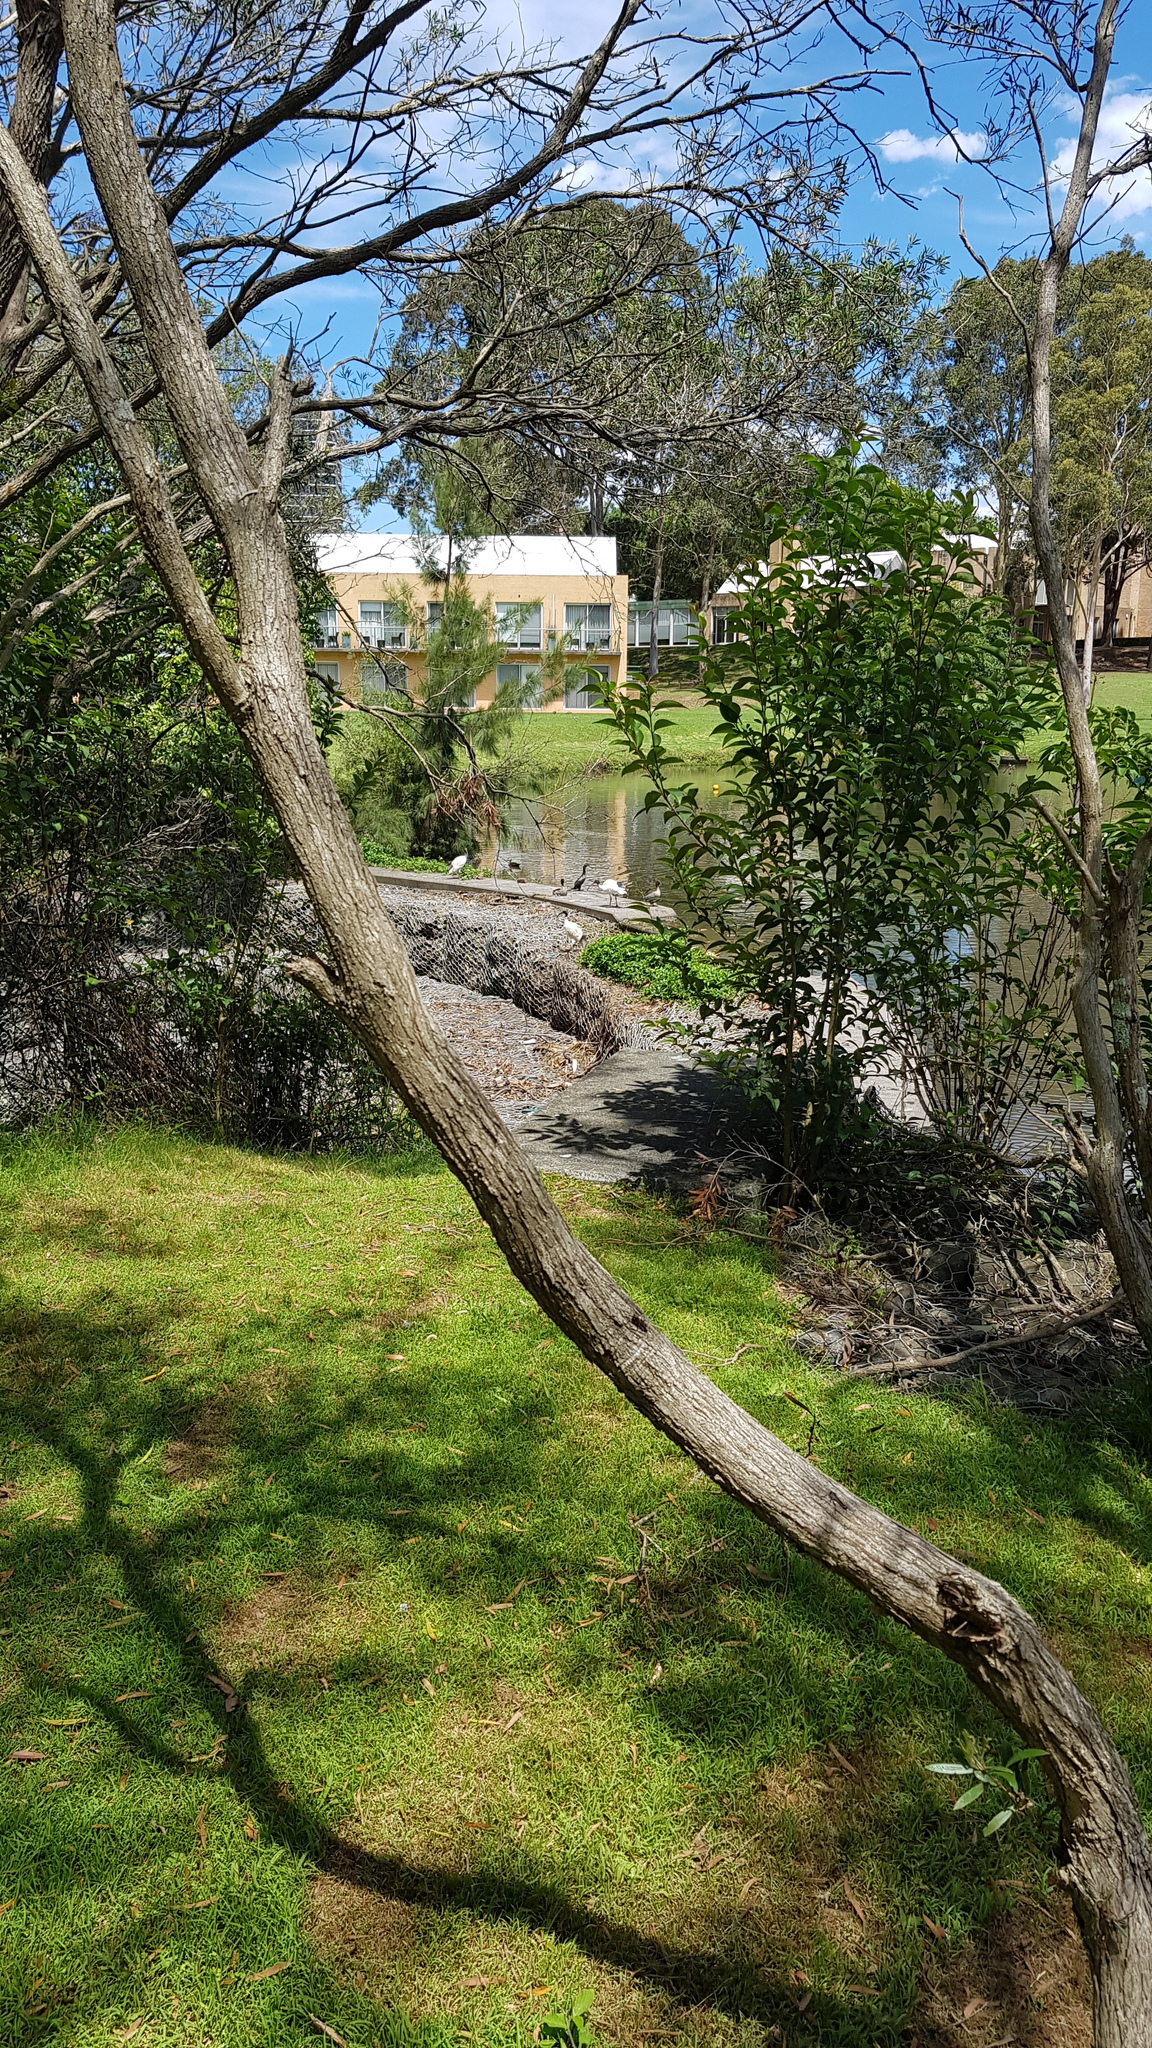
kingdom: Animalia
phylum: Chordata
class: Aves
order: Suliformes
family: Phalacrocoracidae
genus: Phalacrocorax
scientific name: Phalacrocorax sulcirostris
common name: Little black cormorant
